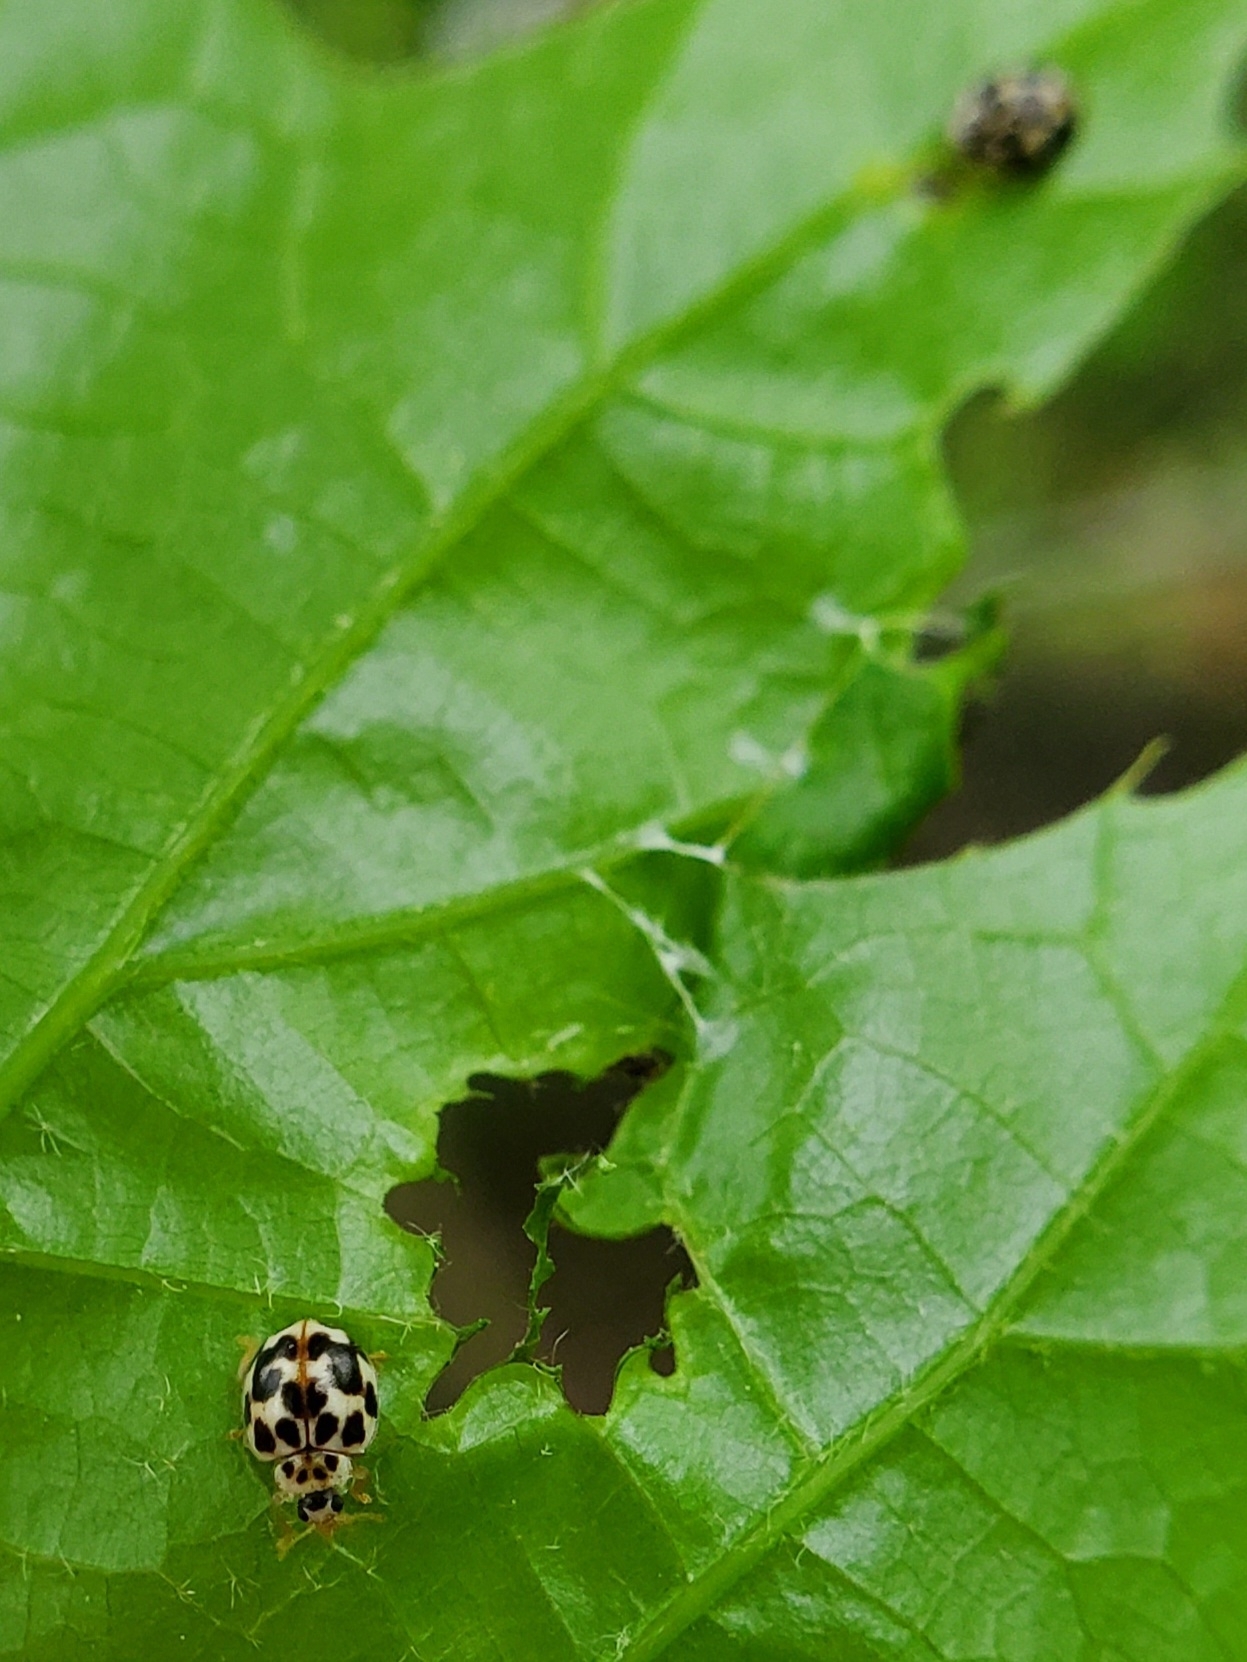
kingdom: Animalia
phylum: Arthropoda
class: Insecta
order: Coleoptera
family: Coccinellidae
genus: Psyllobora
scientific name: Psyllobora vigintimaculata
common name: Ladybird beetle
